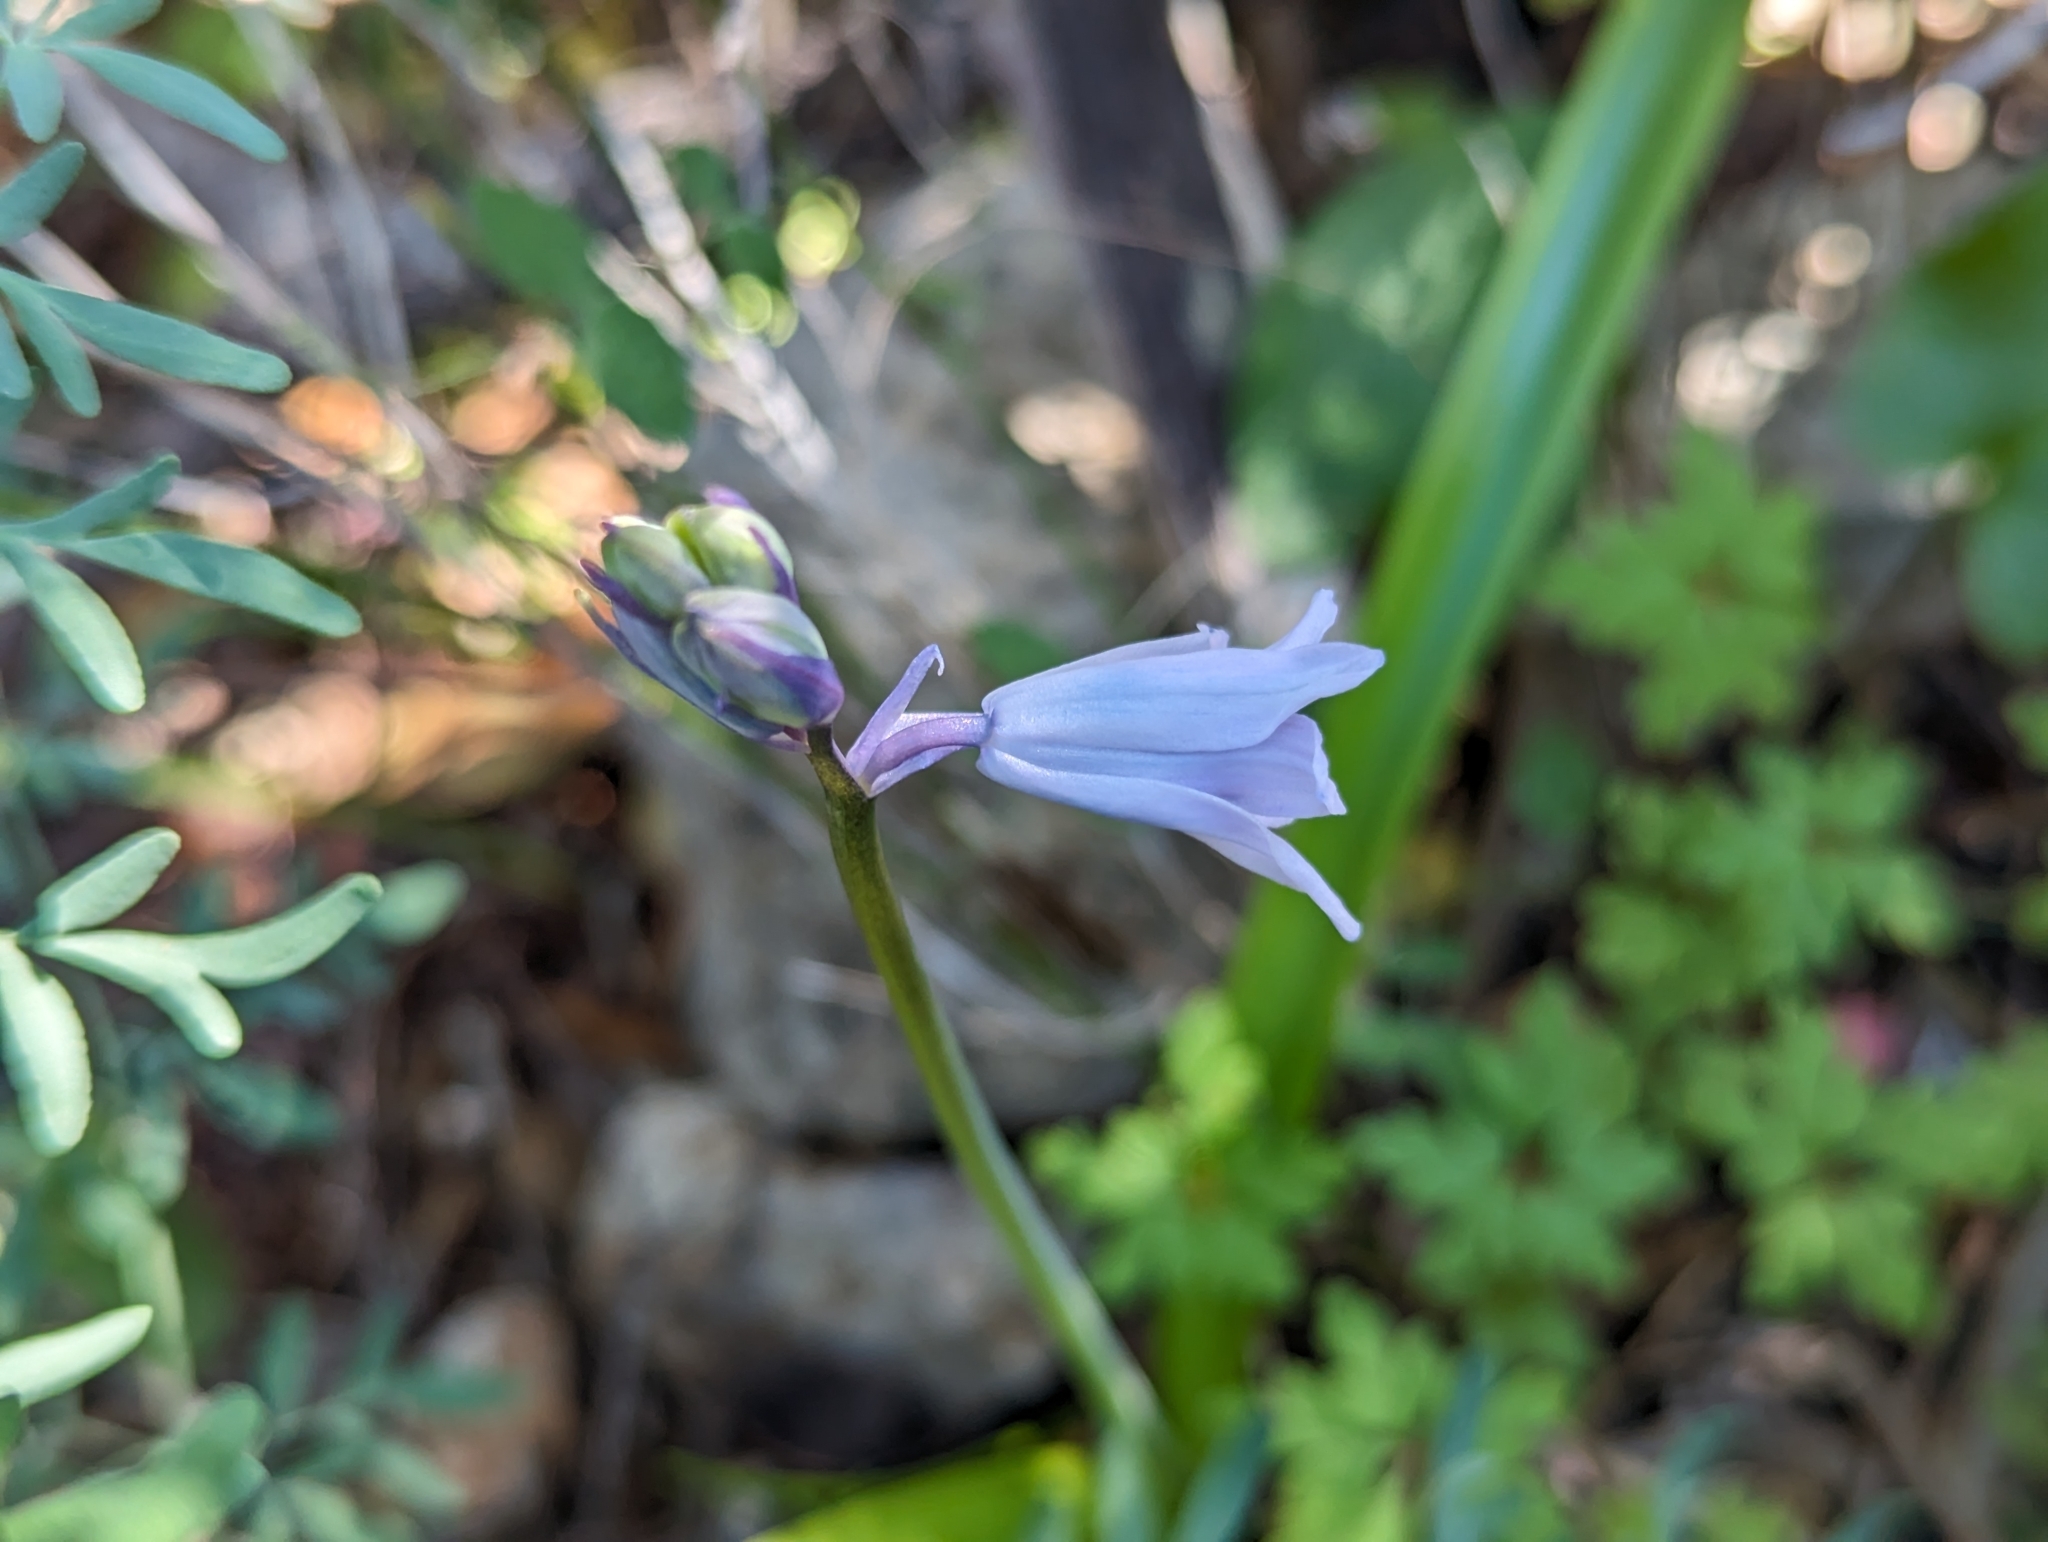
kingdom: Plantae
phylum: Tracheophyta
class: Liliopsida
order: Asparagales
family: Asparagaceae
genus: Hyacinthoides
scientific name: Hyacinthoides hispanica
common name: Spanish bluebell
